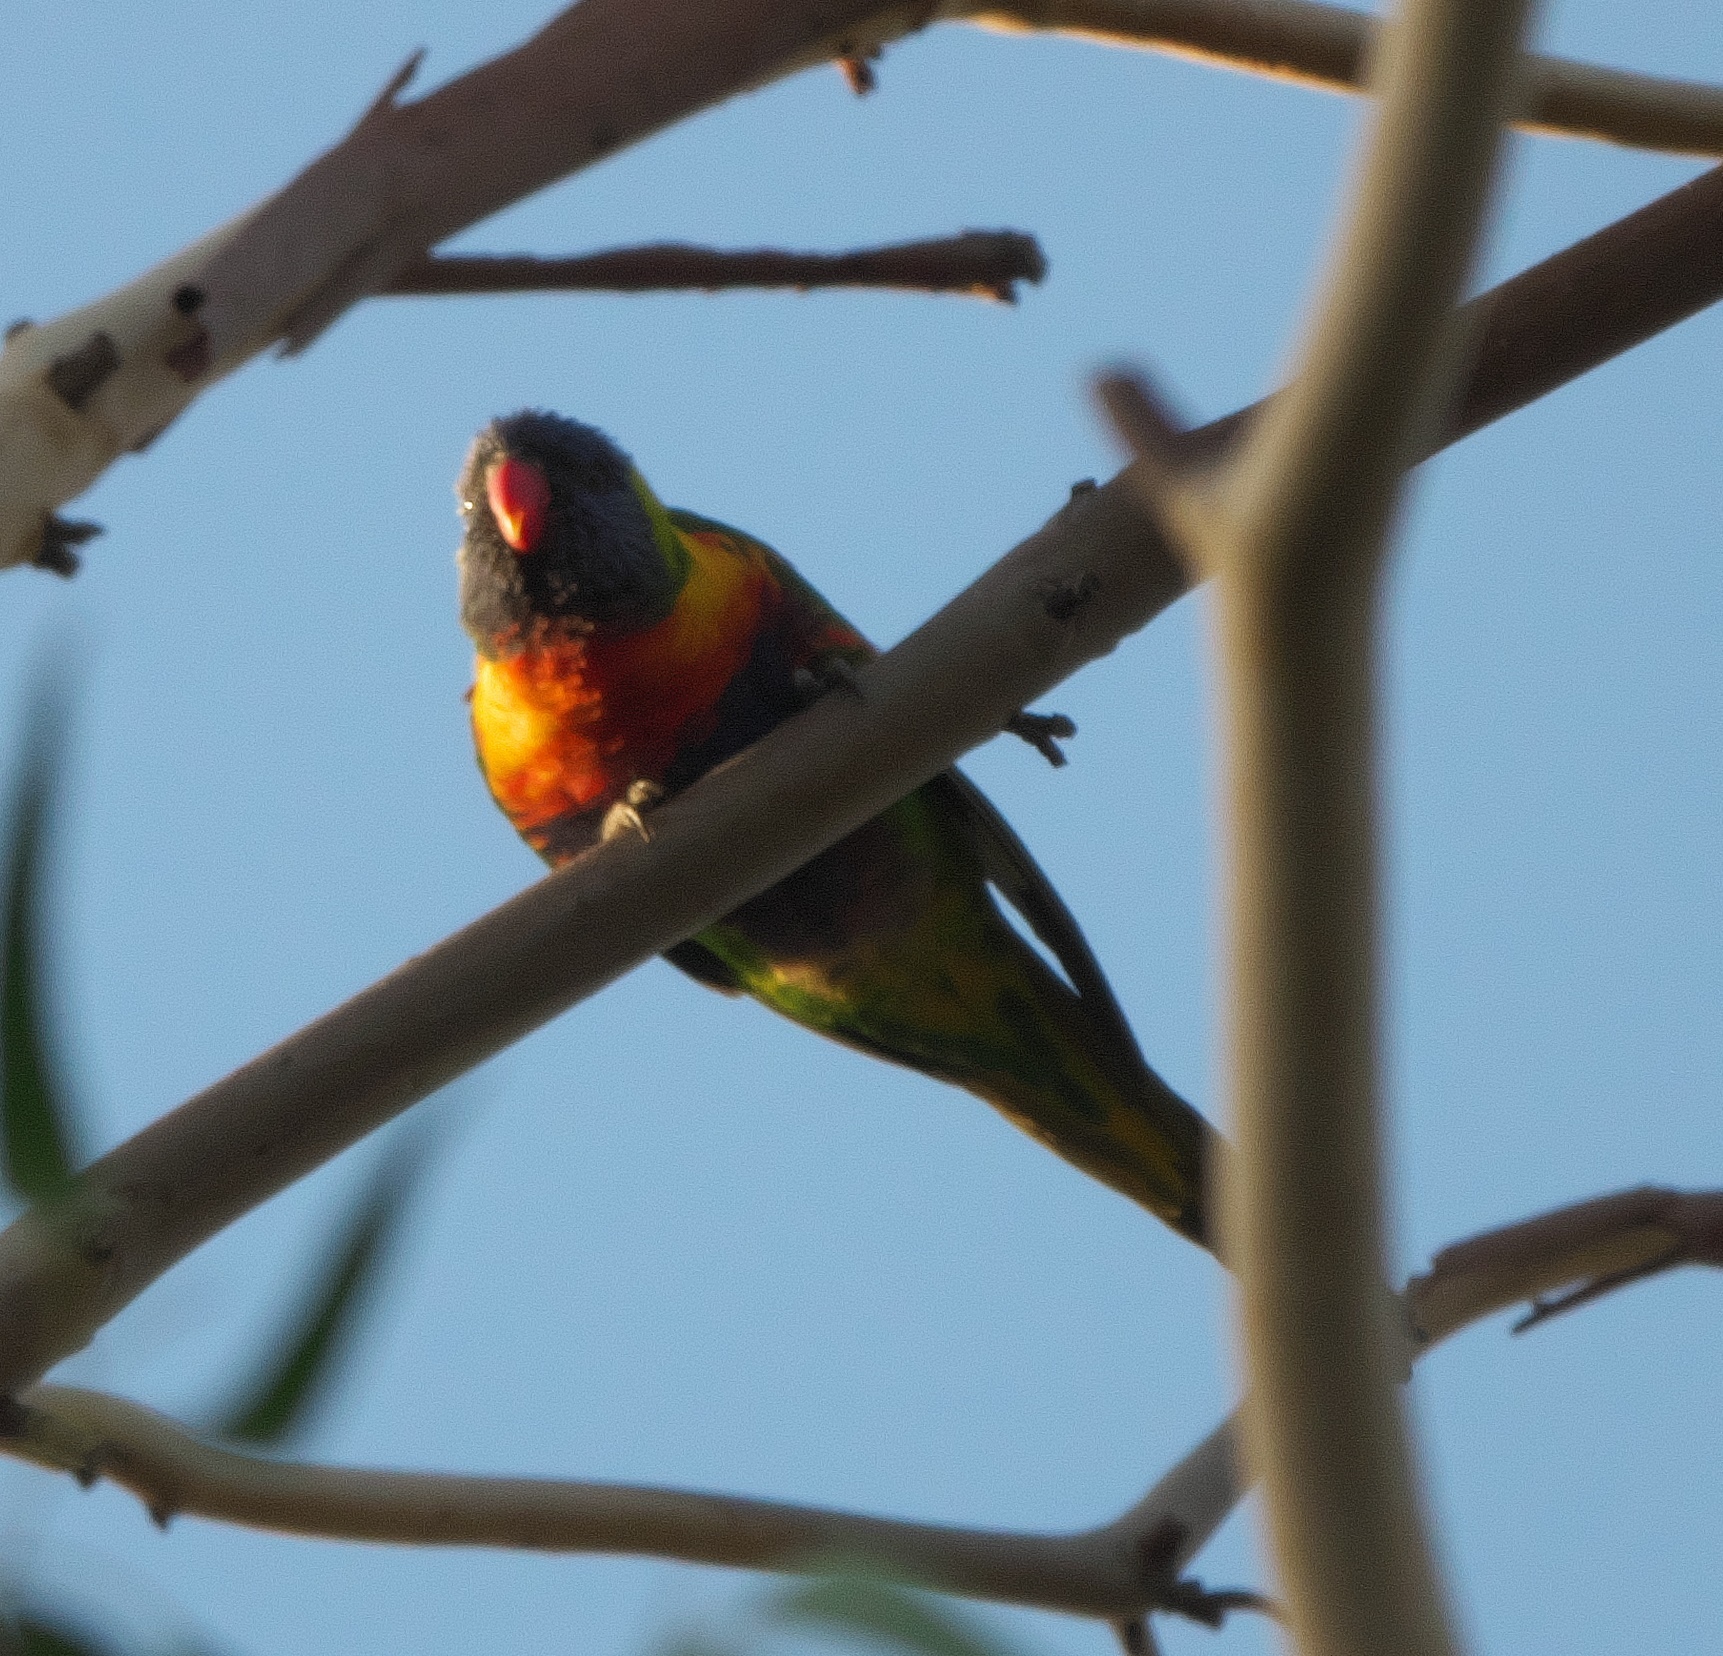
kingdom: Animalia
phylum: Chordata
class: Aves
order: Psittaciformes
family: Psittacidae
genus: Trichoglossus
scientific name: Trichoglossus haematodus
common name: Coconut lorikeet
